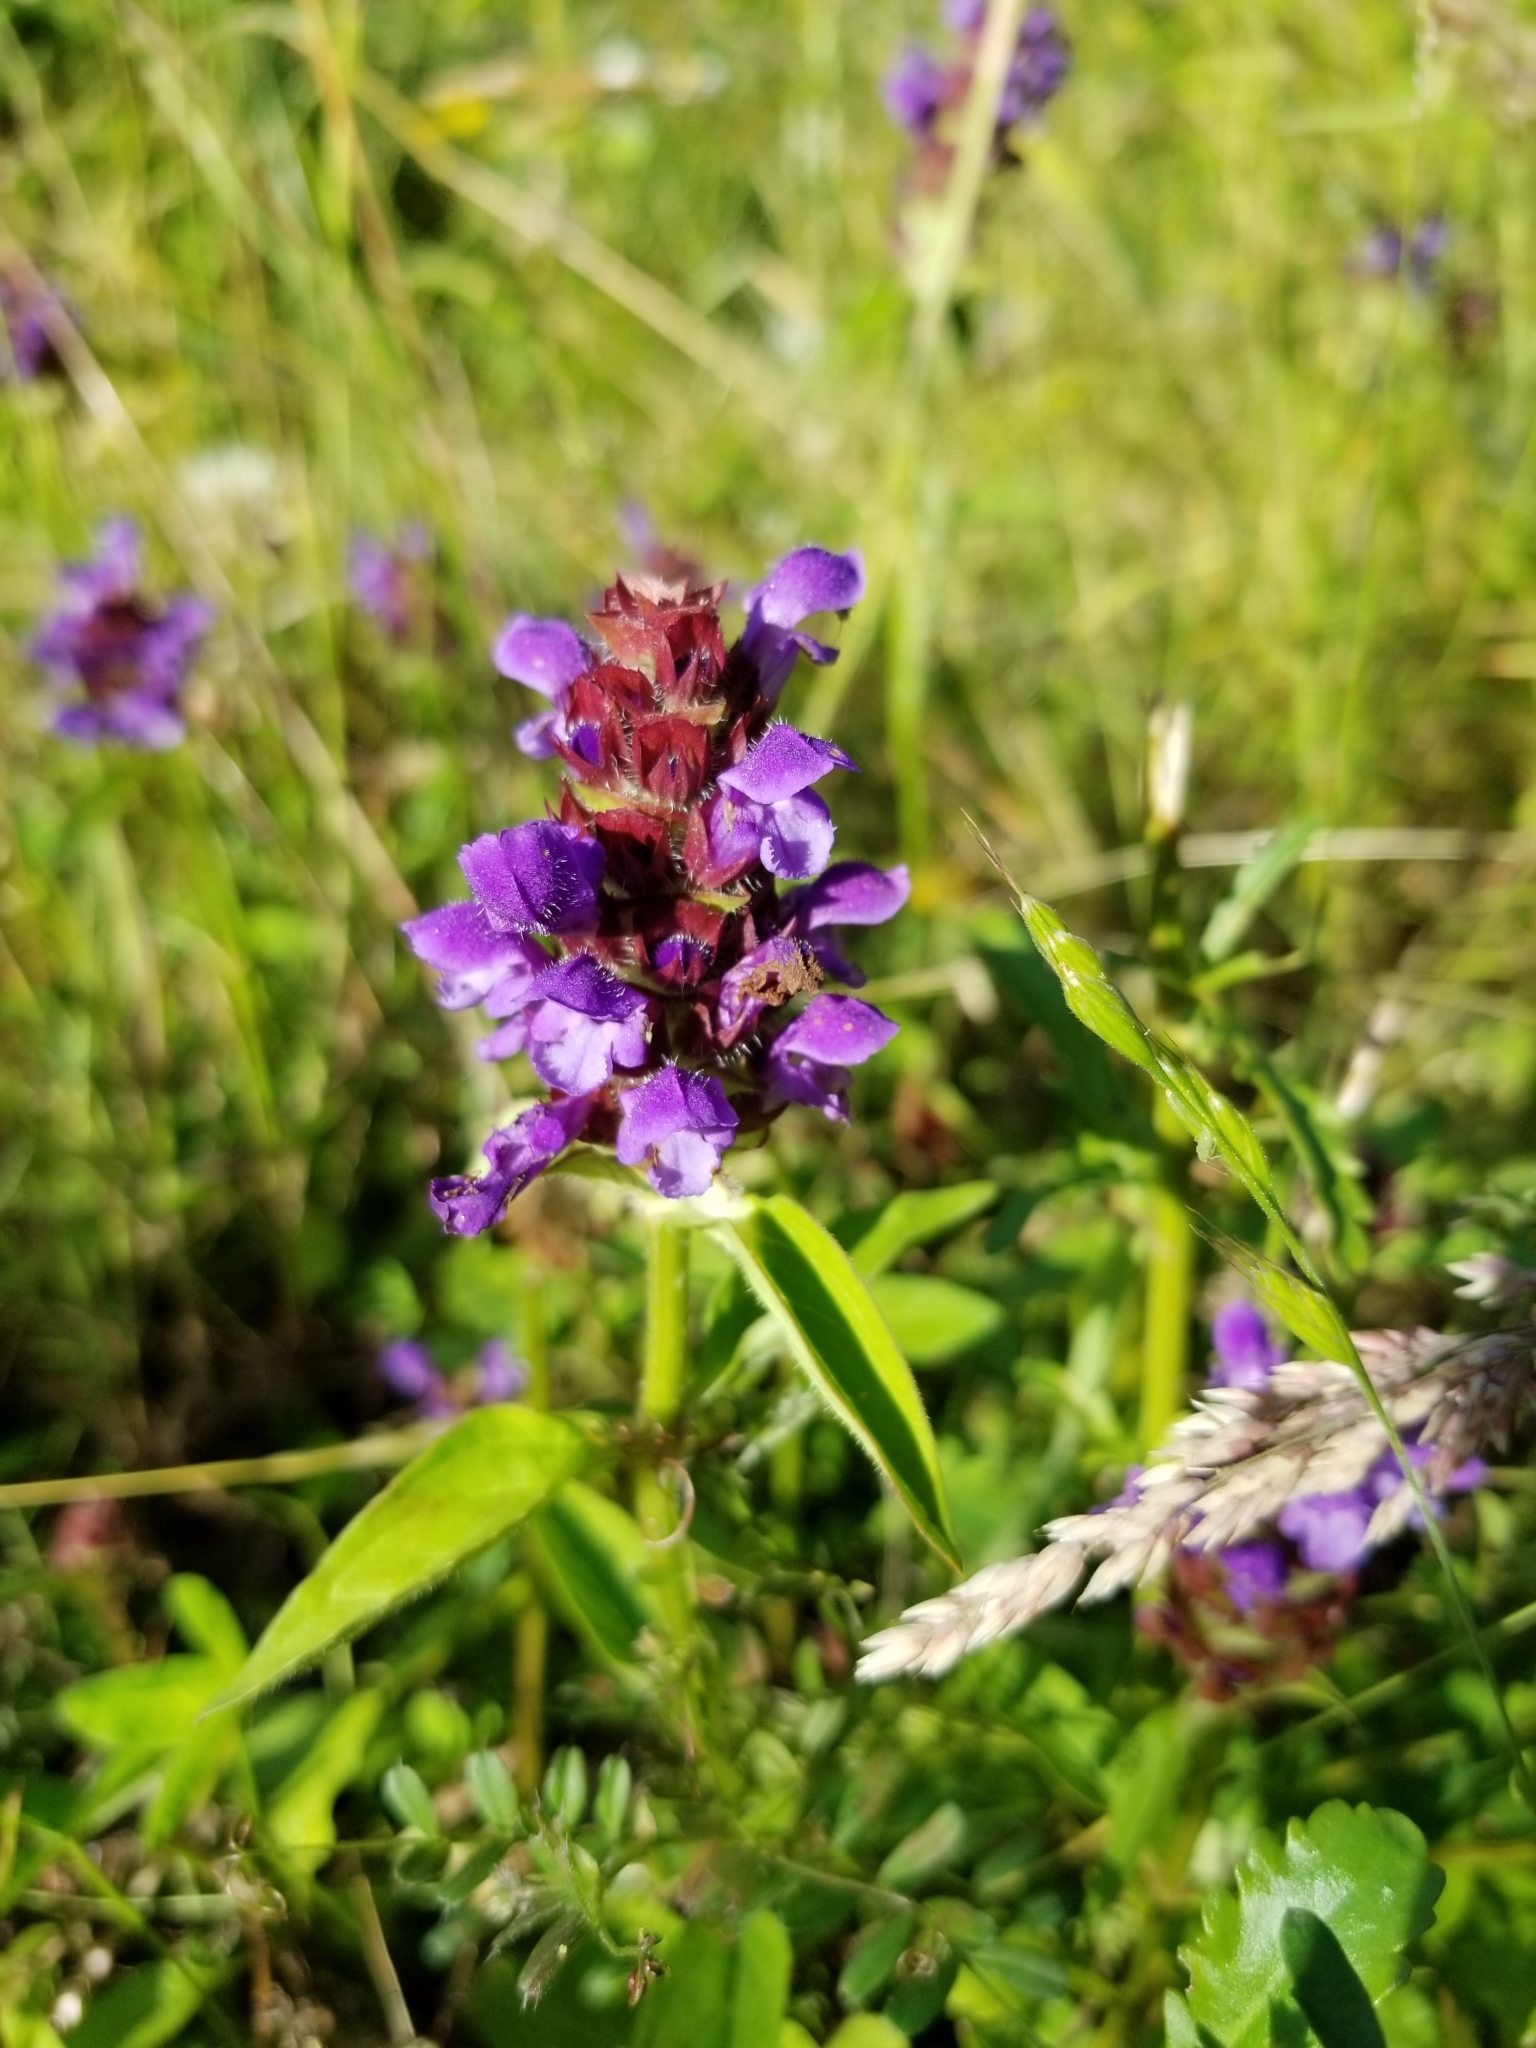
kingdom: Plantae
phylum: Tracheophyta
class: Magnoliopsida
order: Lamiales
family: Lamiaceae
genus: Prunella
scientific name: Prunella vulgaris
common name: Heal-all
